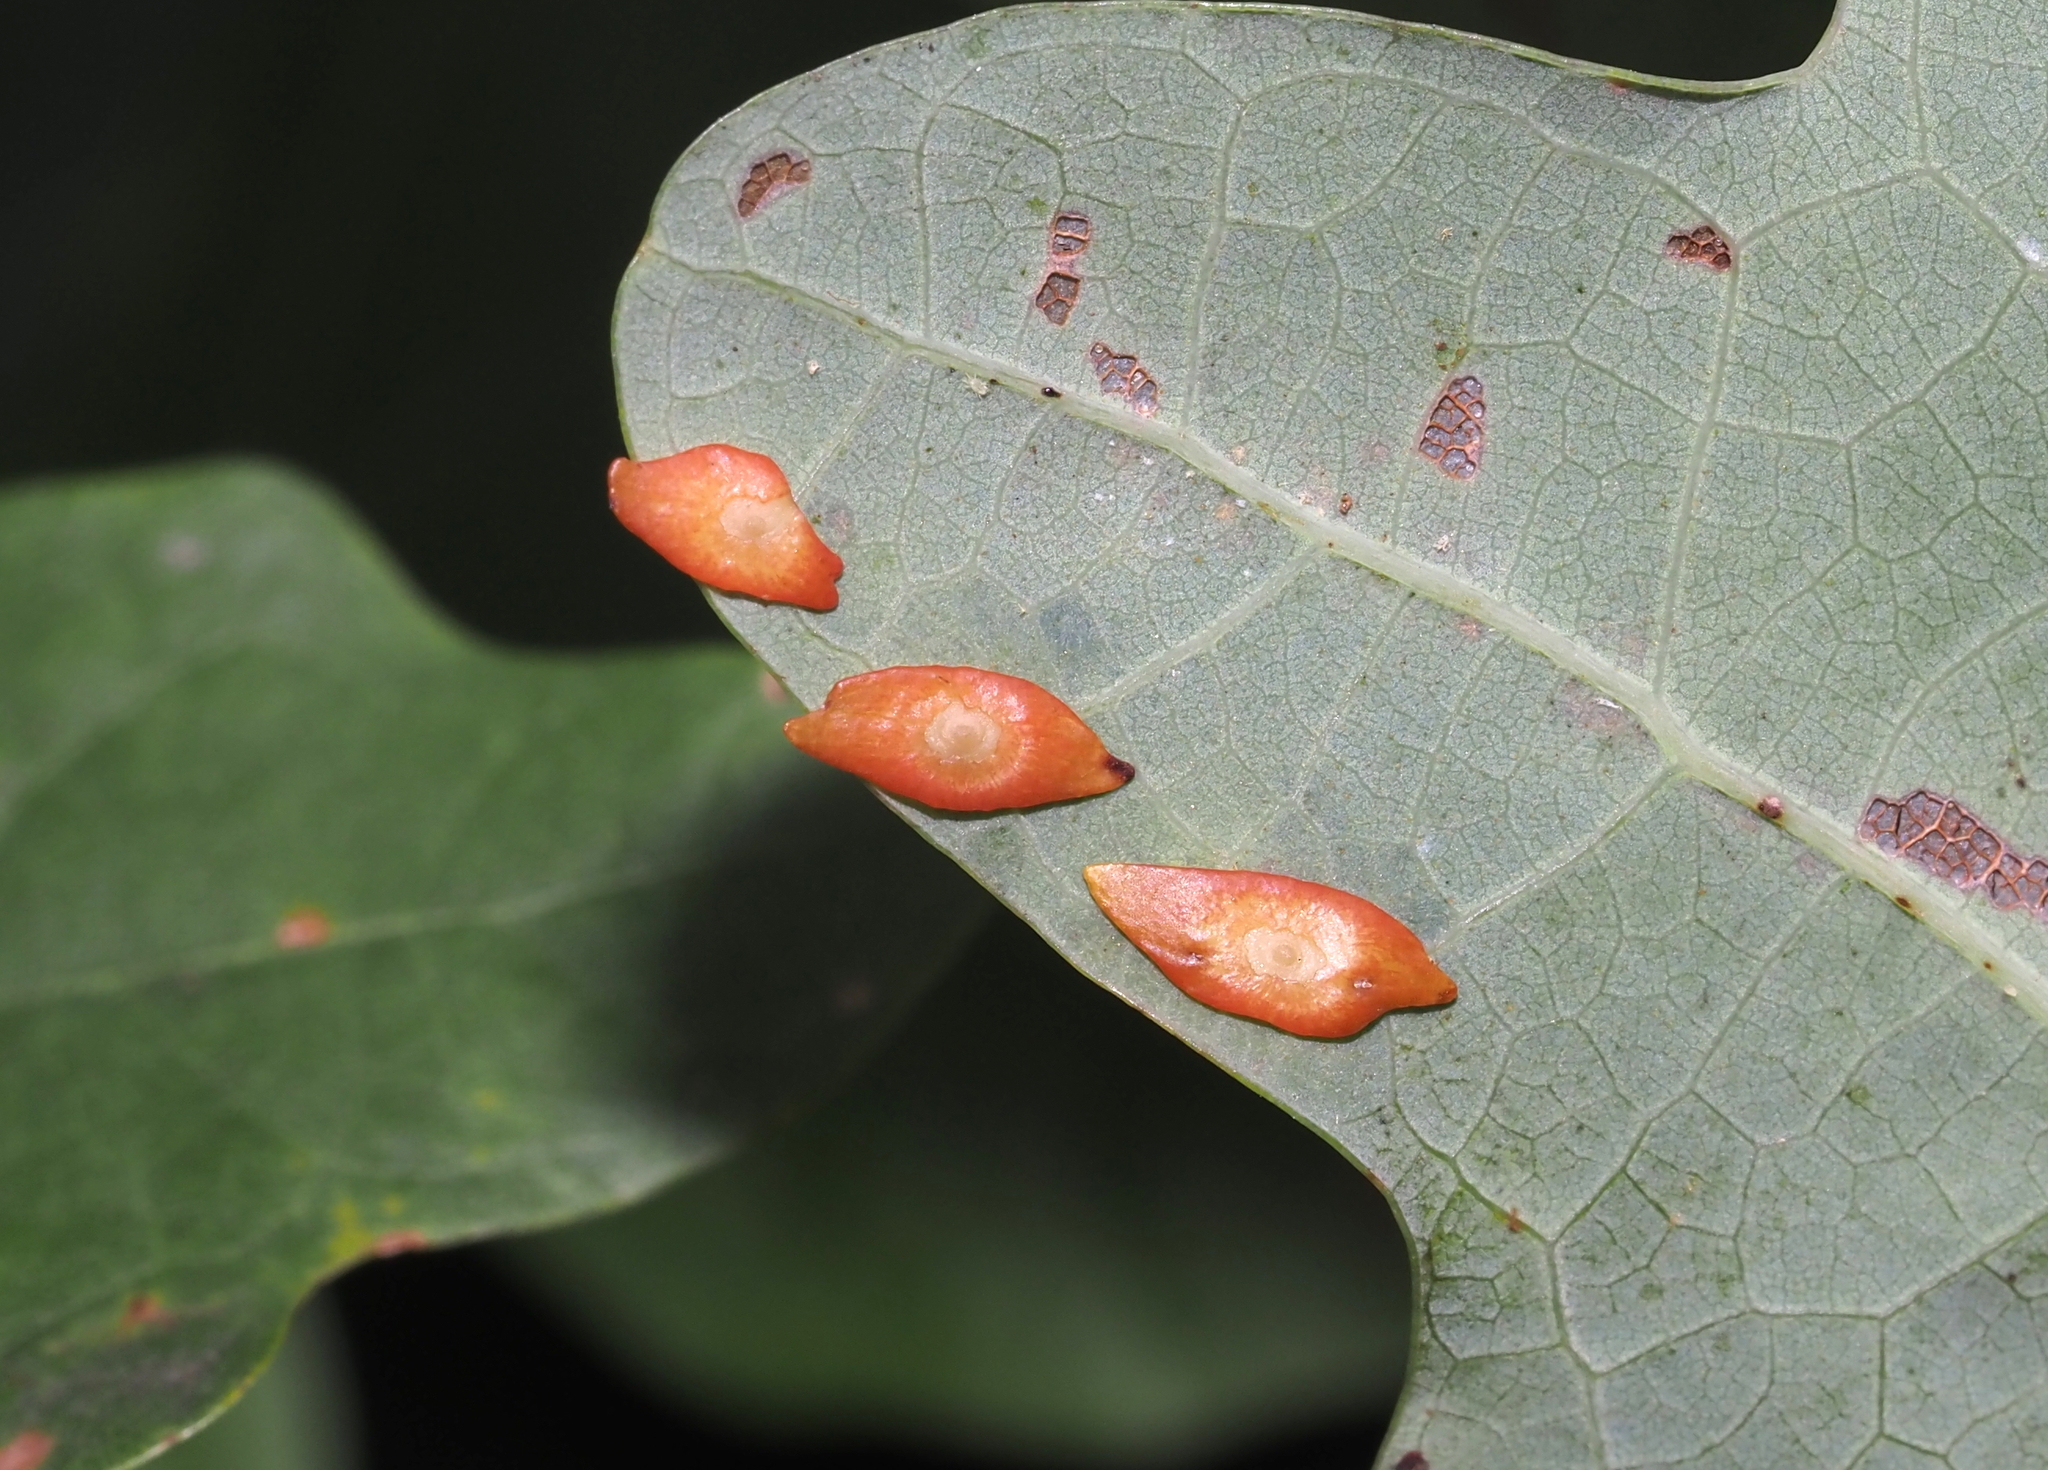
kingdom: Animalia
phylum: Arthropoda
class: Insecta
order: Hymenoptera
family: Cynipidae
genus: Phylloteras
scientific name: Phylloteras
